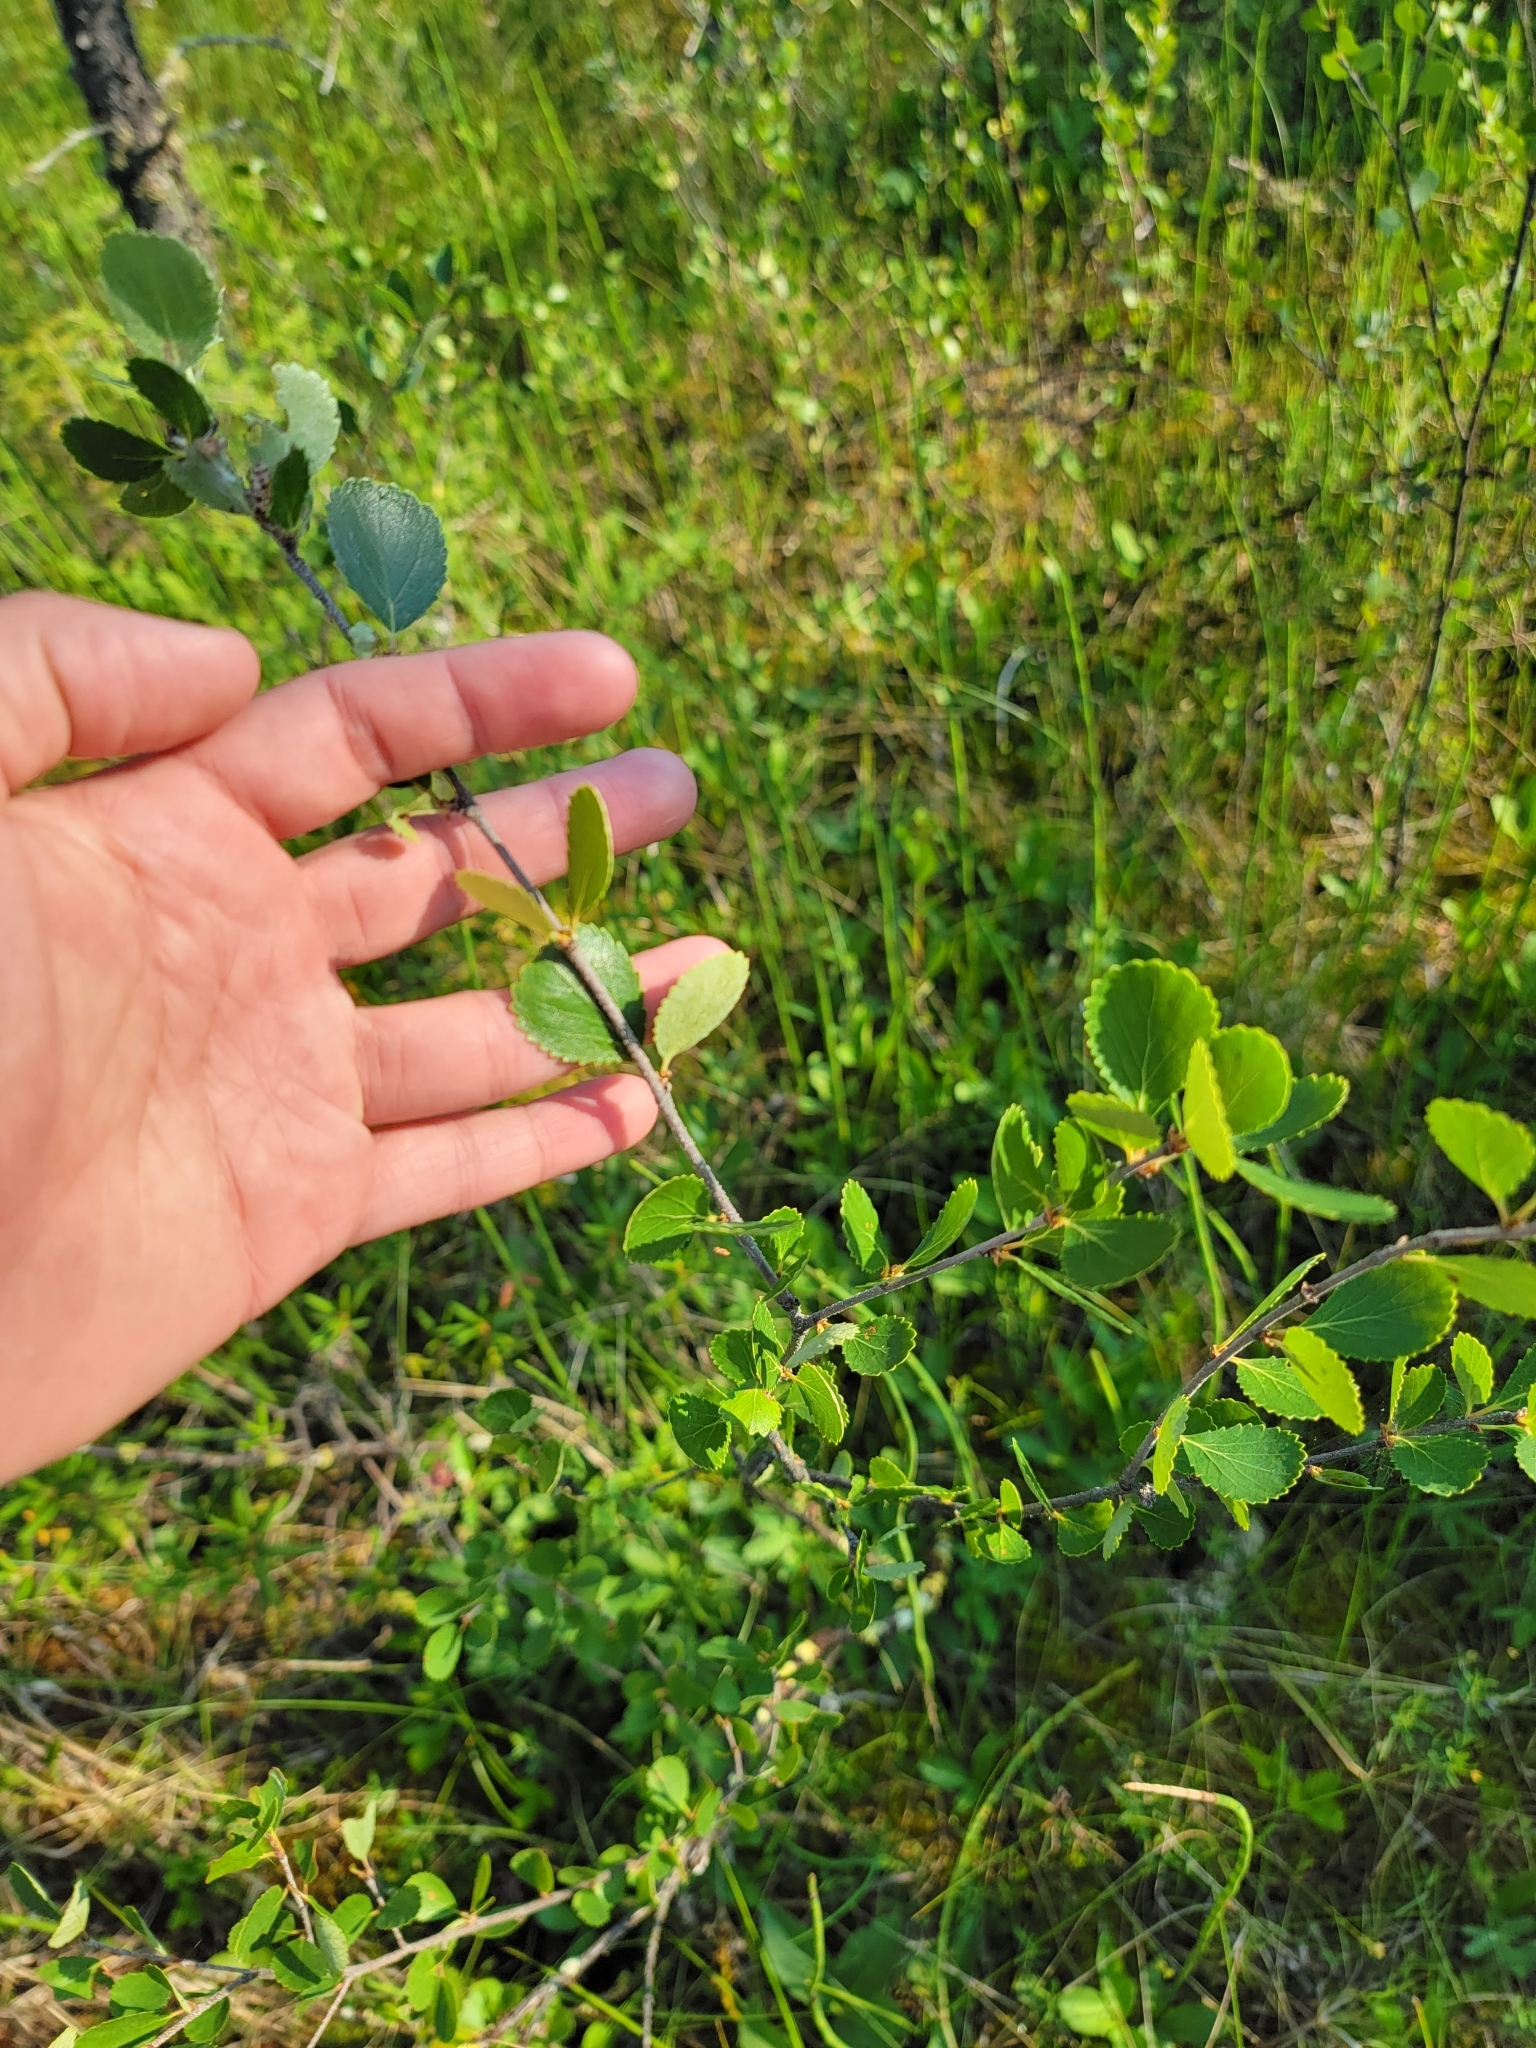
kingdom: Plantae
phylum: Tracheophyta
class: Magnoliopsida
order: Fagales
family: Betulaceae
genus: Betula
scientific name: Betula pumila
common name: Bog birch
